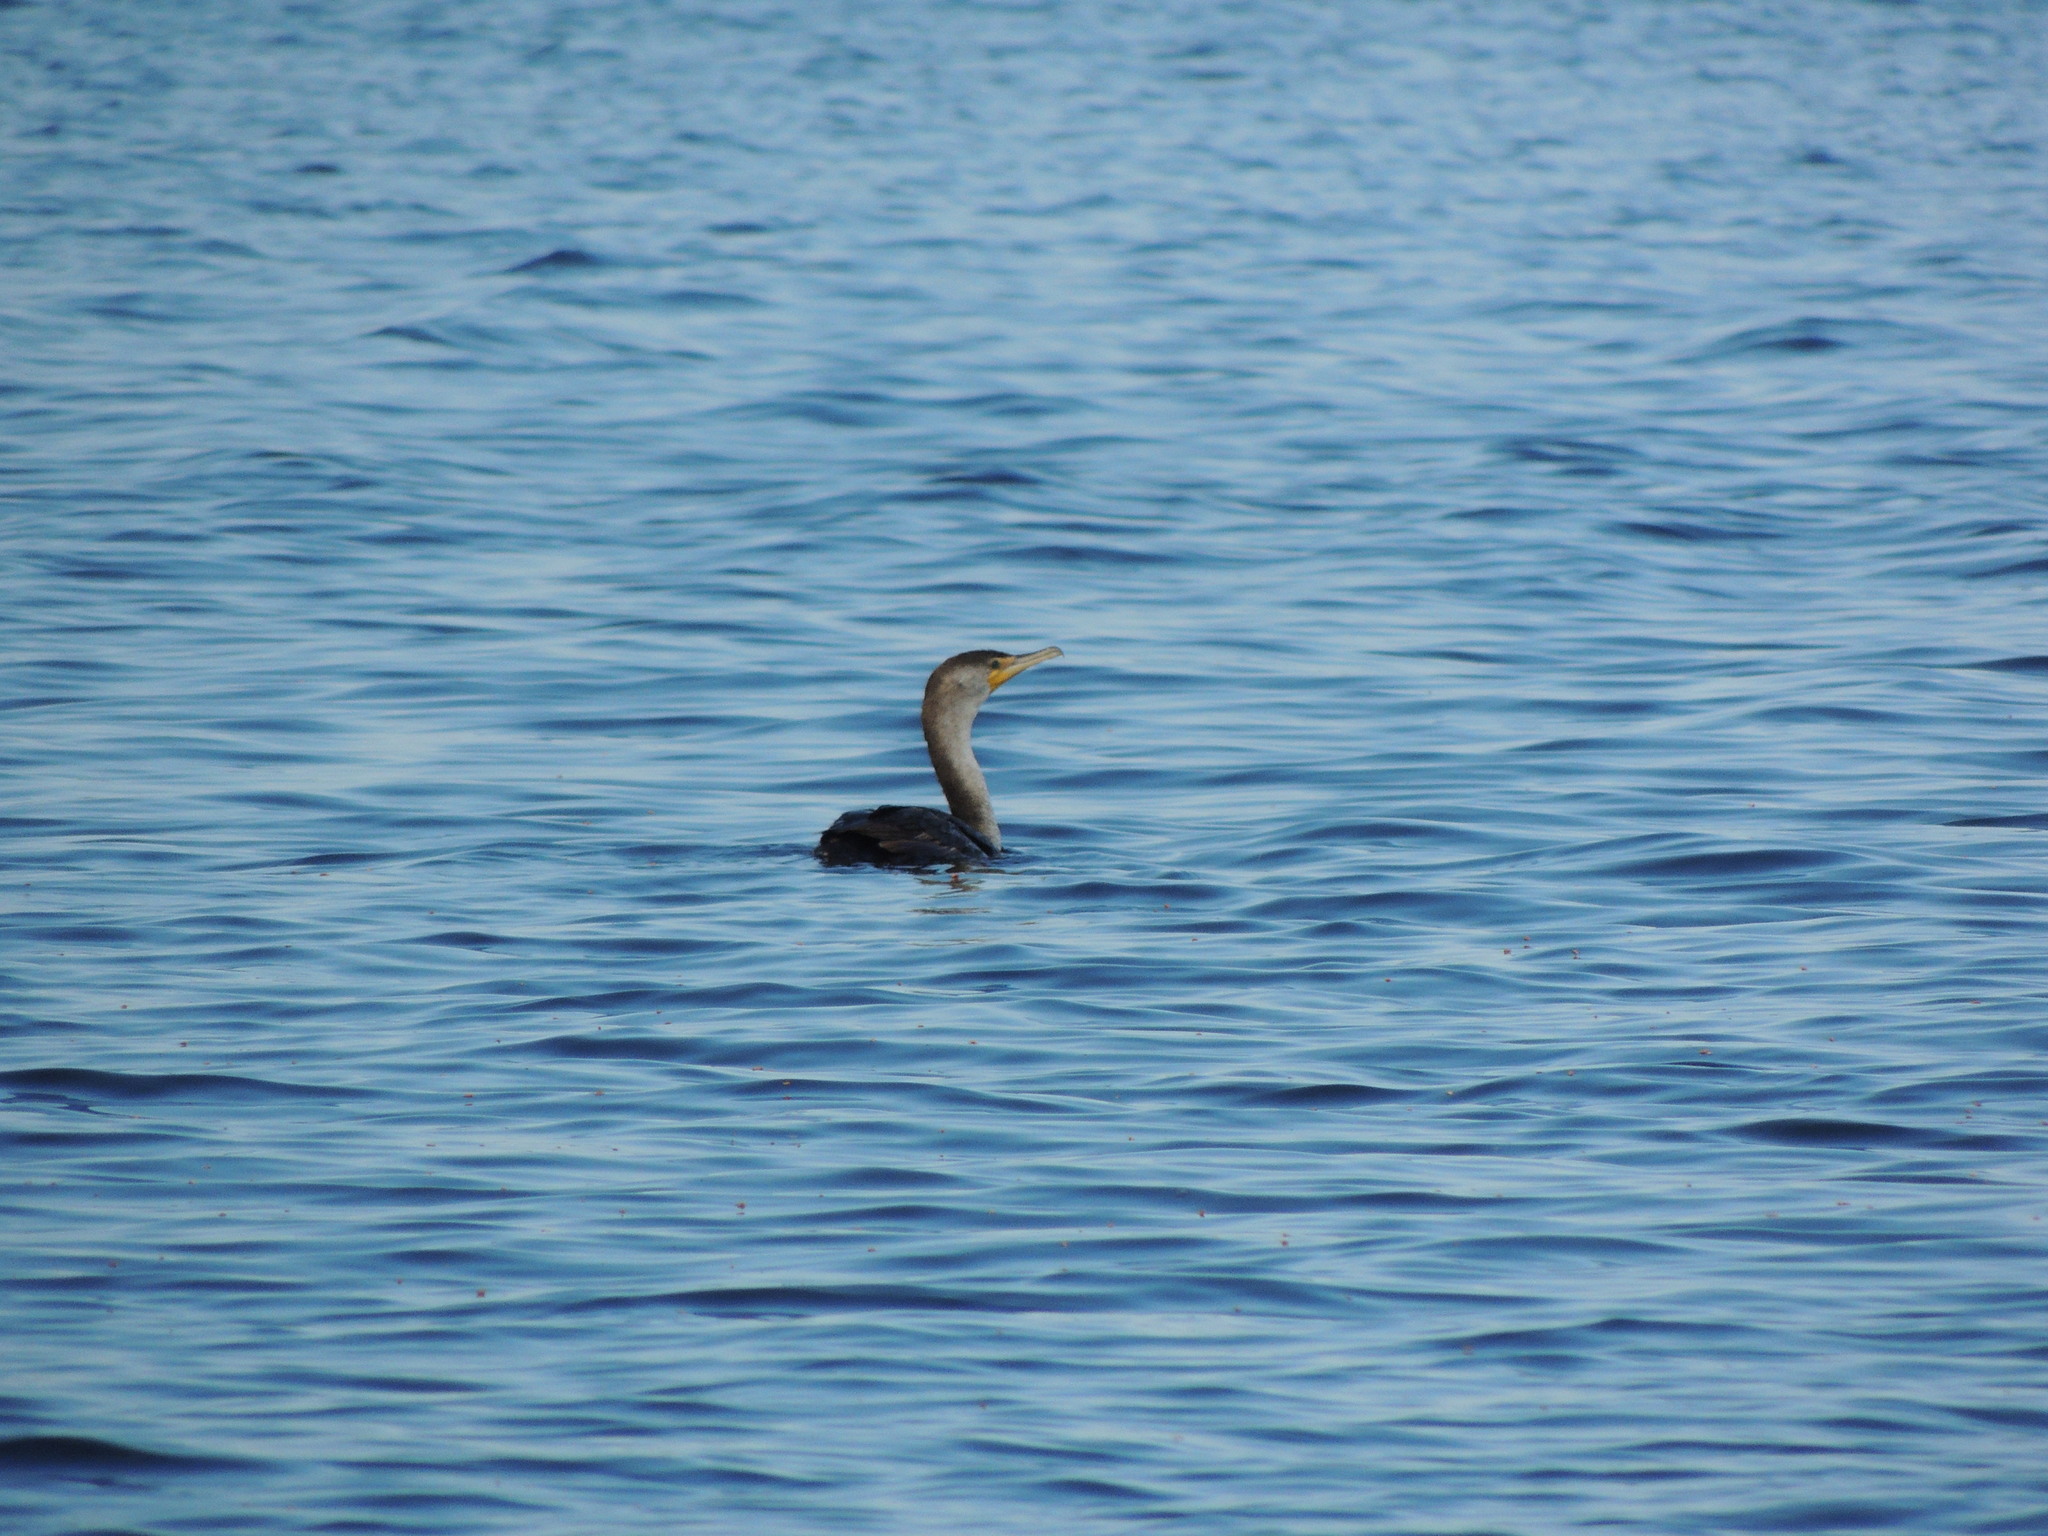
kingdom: Animalia
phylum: Chordata
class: Aves
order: Suliformes
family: Phalacrocoracidae
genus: Phalacrocorax
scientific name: Phalacrocorax auritus
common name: Double-crested cormorant
